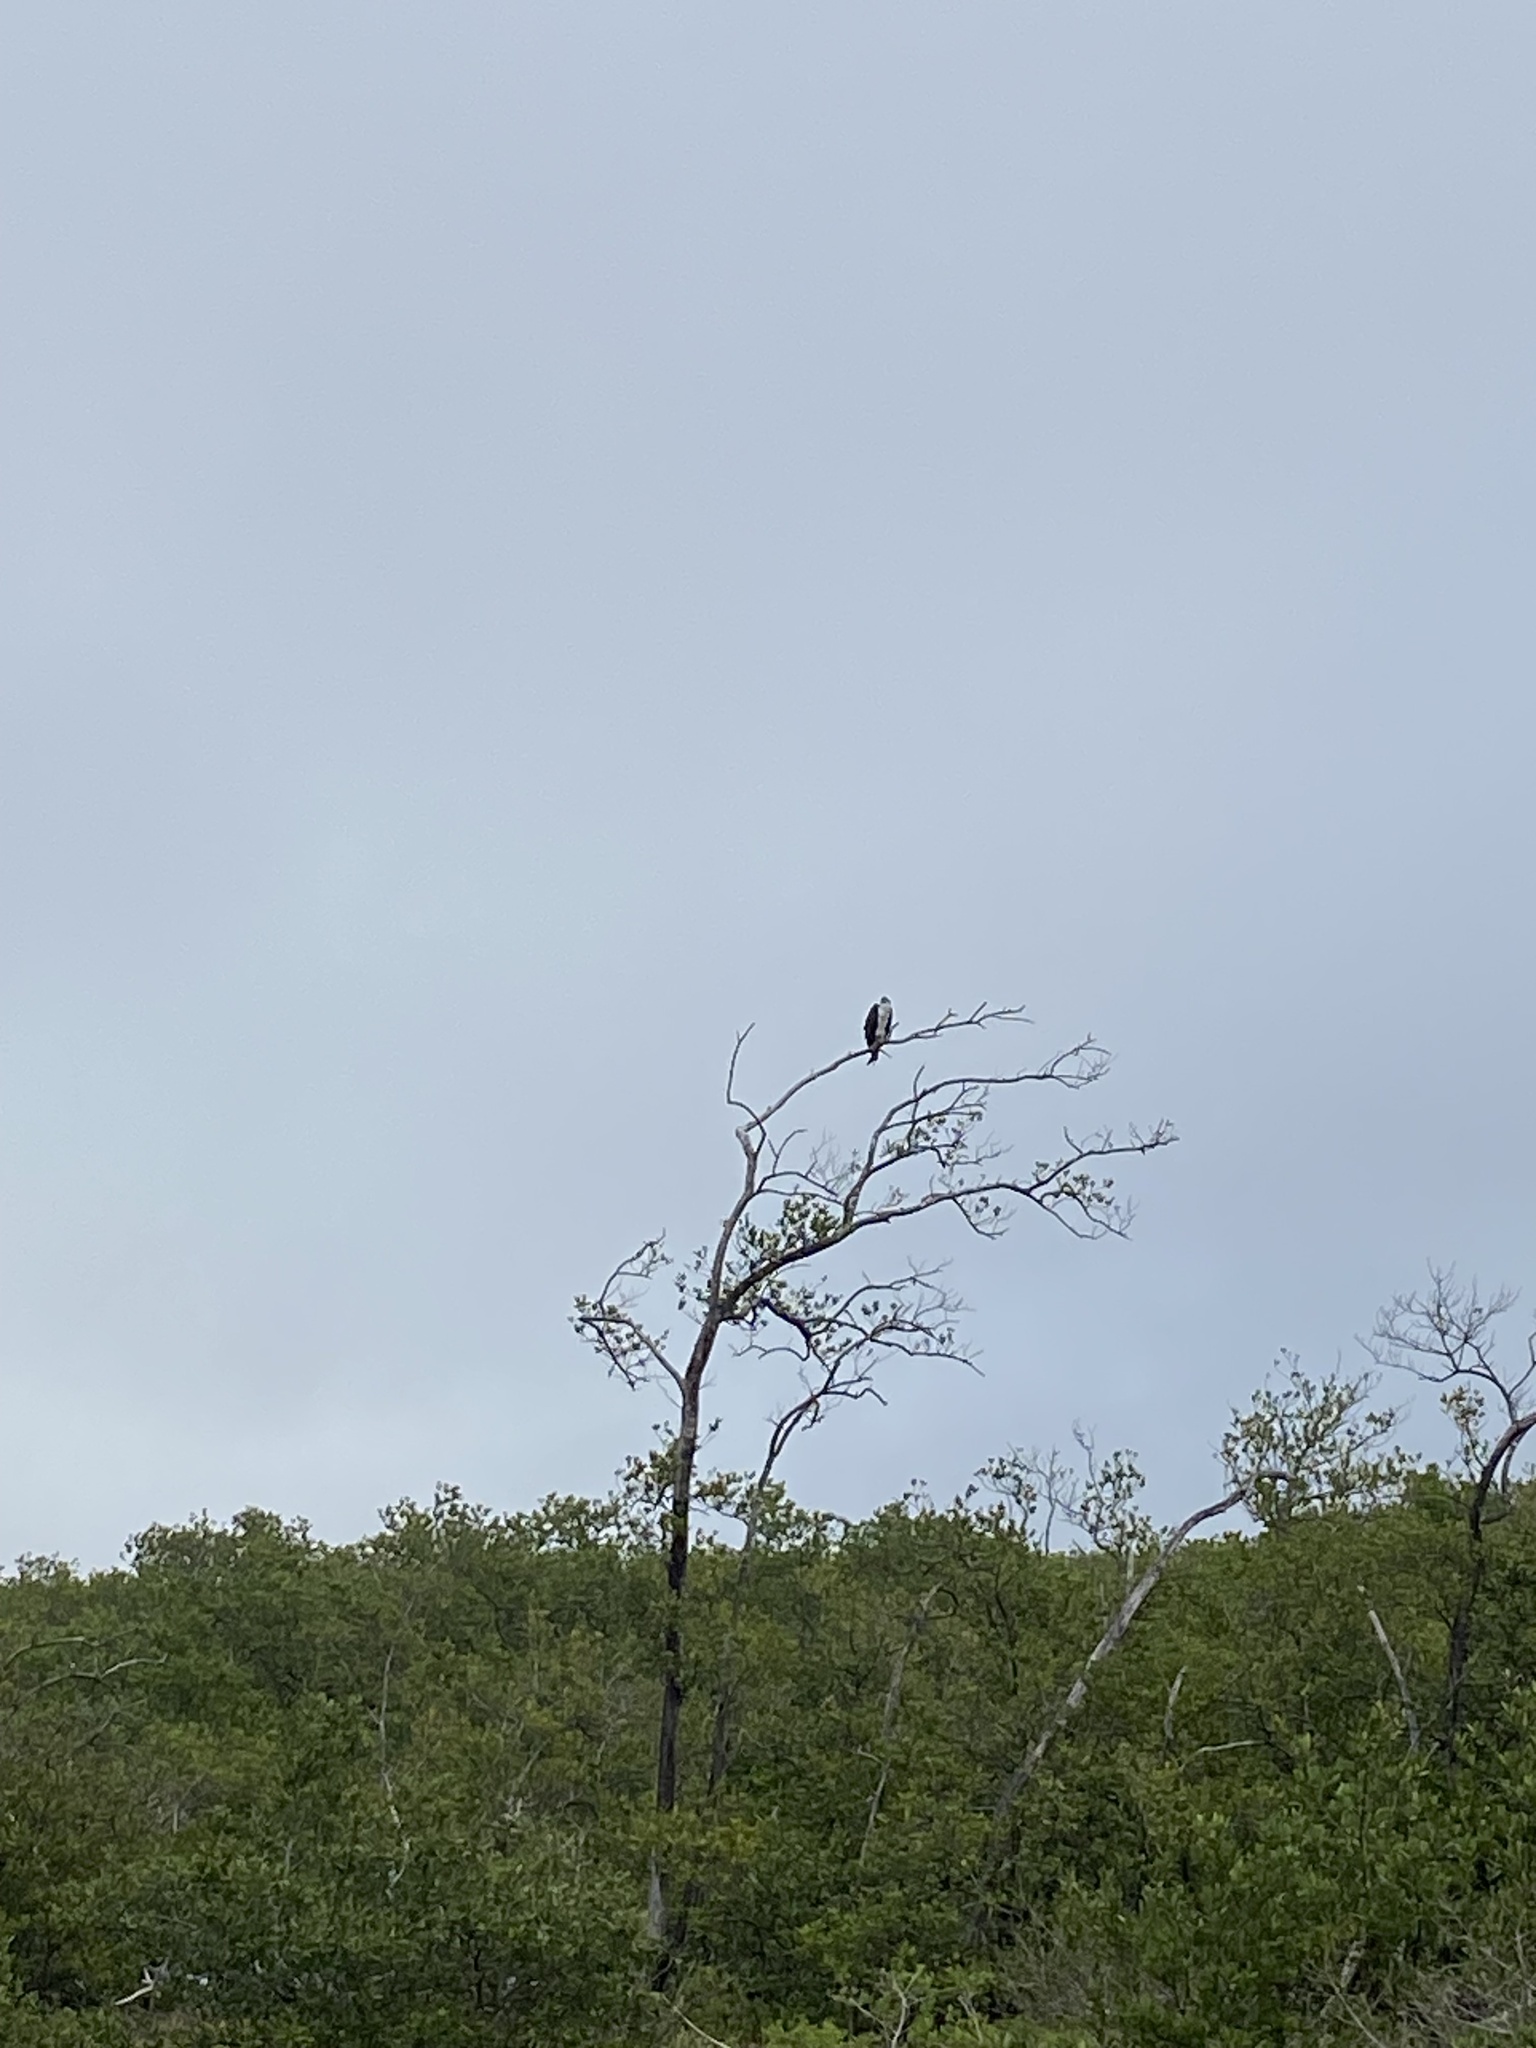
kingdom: Animalia
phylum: Chordata
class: Aves
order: Accipitriformes
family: Pandionidae
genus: Pandion
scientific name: Pandion haliaetus
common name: Osprey
